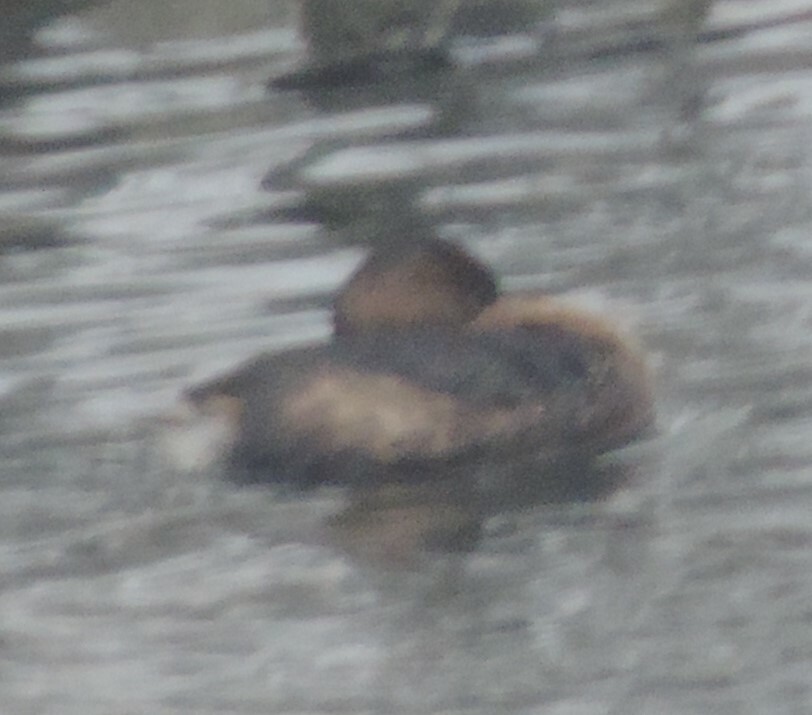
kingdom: Animalia
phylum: Chordata
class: Aves
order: Podicipediformes
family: Podicipedidae
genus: Podilymbus
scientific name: Podilymbus podiceps
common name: Pied-billed grebe
